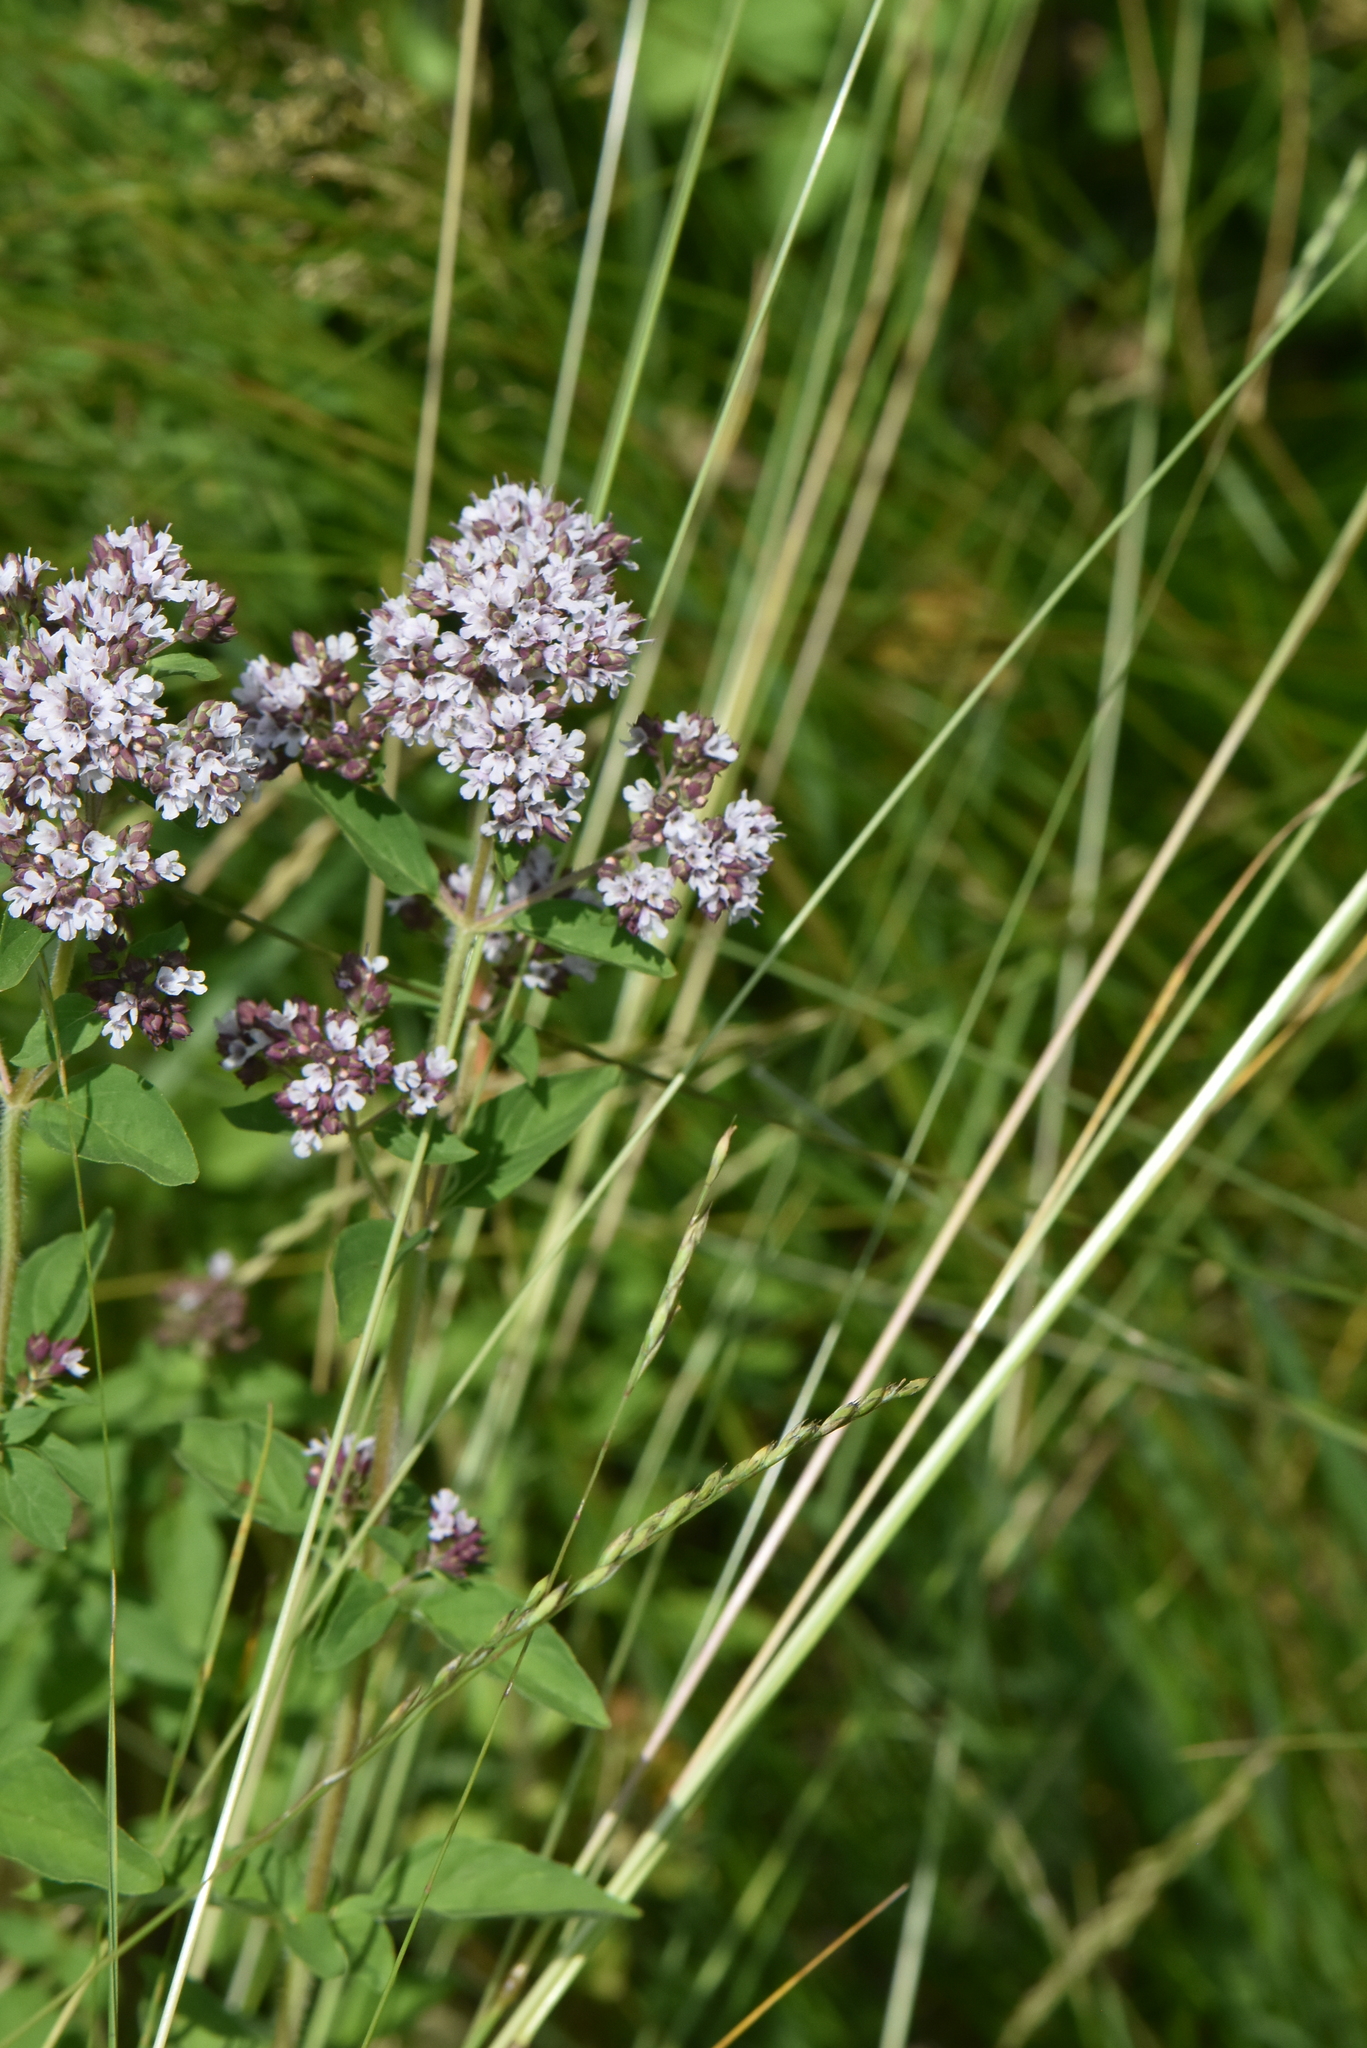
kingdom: Plantae
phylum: Tracheophyta
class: Magnoliopsida
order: Lamiales
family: Lamiaceae
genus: Origanum
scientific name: Origanum vulgare
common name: Wild marjoram
